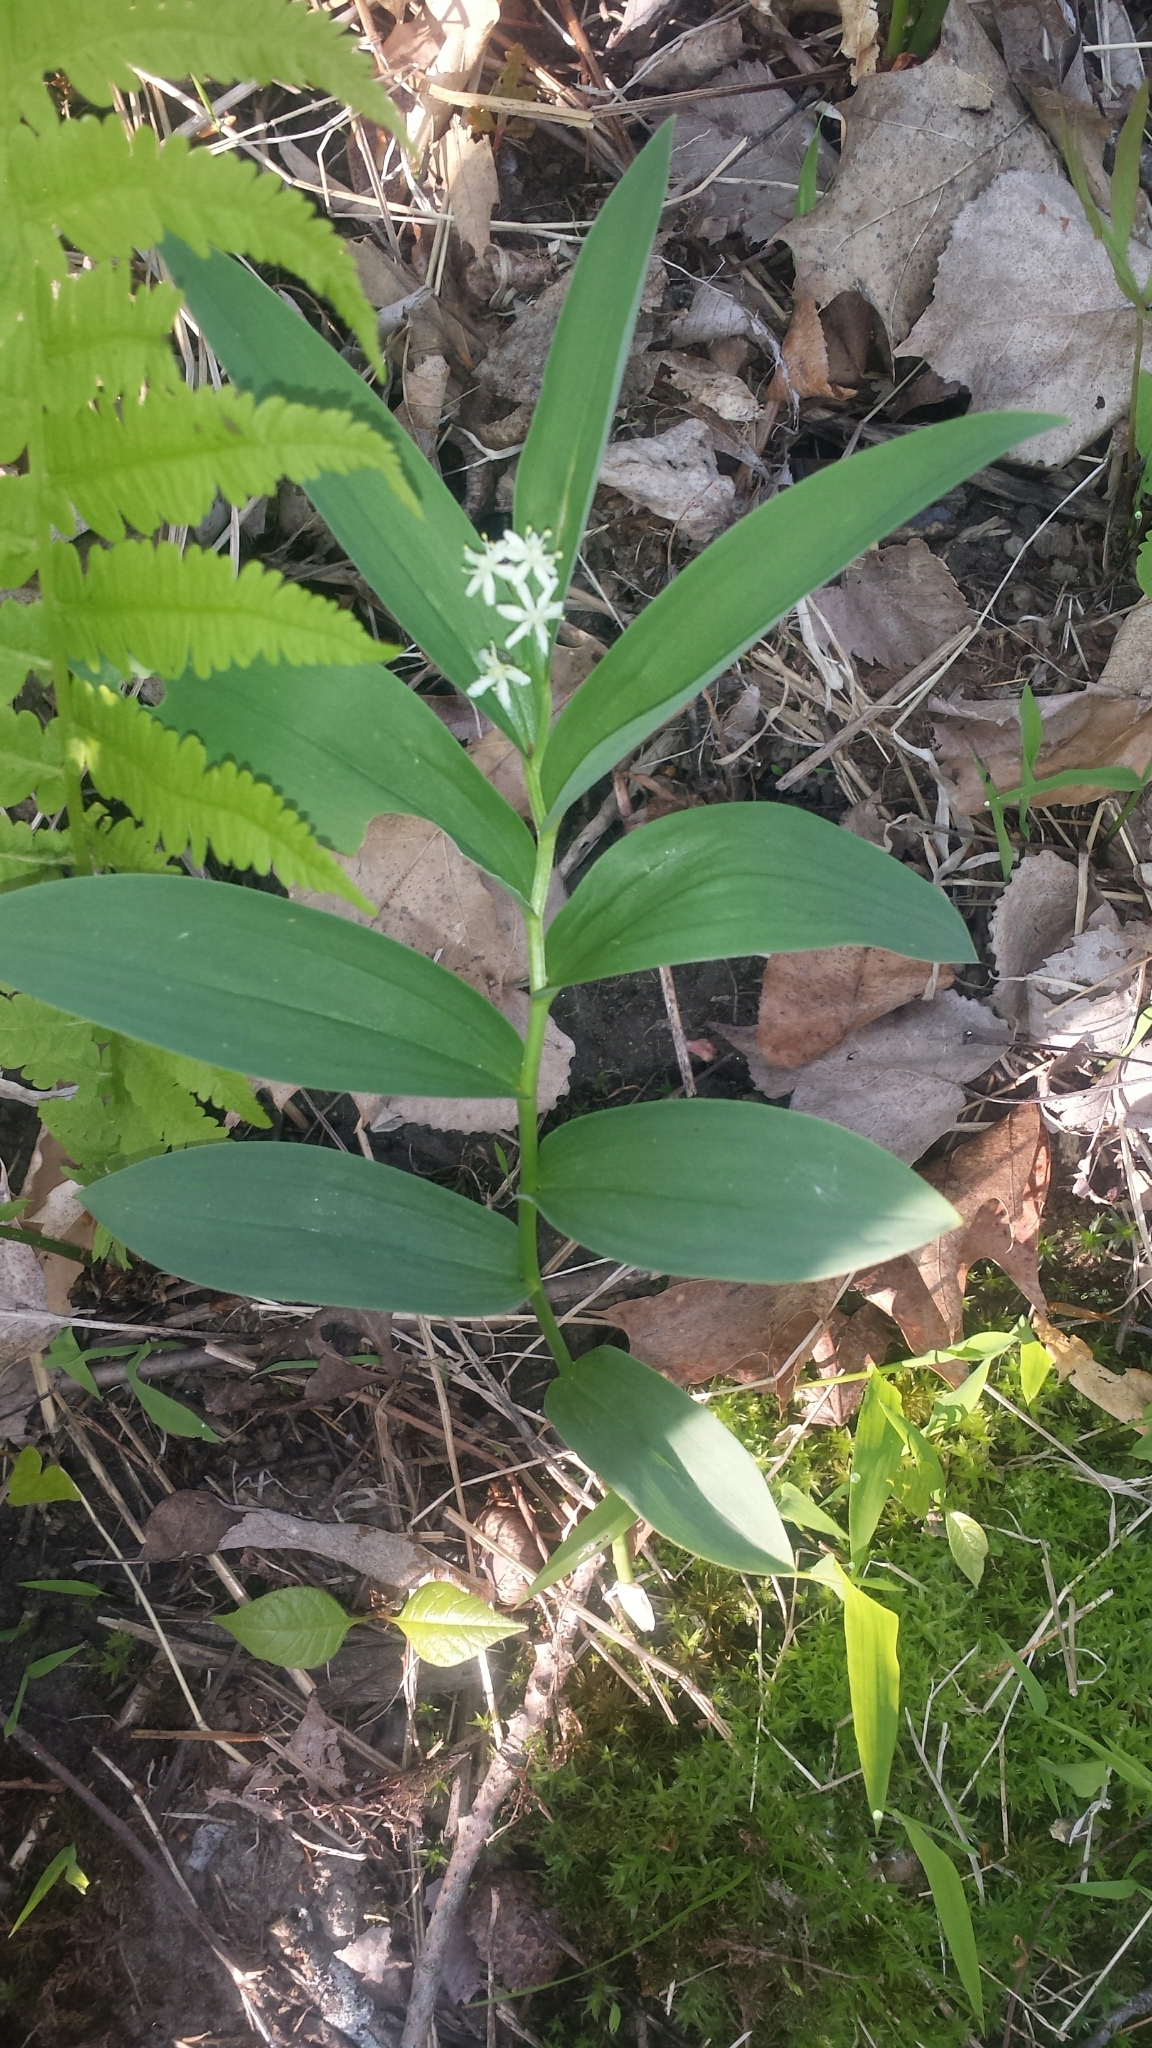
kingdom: Plantae
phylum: Tracheophyta
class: Liliopsida
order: Asparagales
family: Asparagaceae
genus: Maianthemum
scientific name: Maianthemum stellatum
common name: Little false solomon's seal
